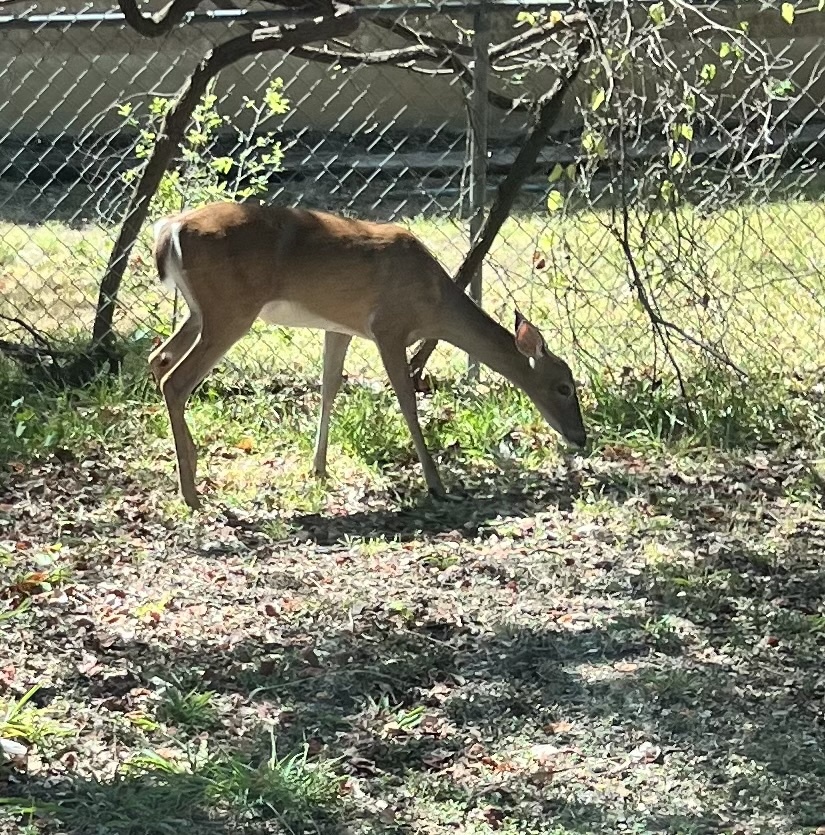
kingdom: Animalia
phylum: Chordata
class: Mammalia
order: Artiodactyla
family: Cervidae
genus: Odocoileus
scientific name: Odocoileus virginianus
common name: White-tailed deer
